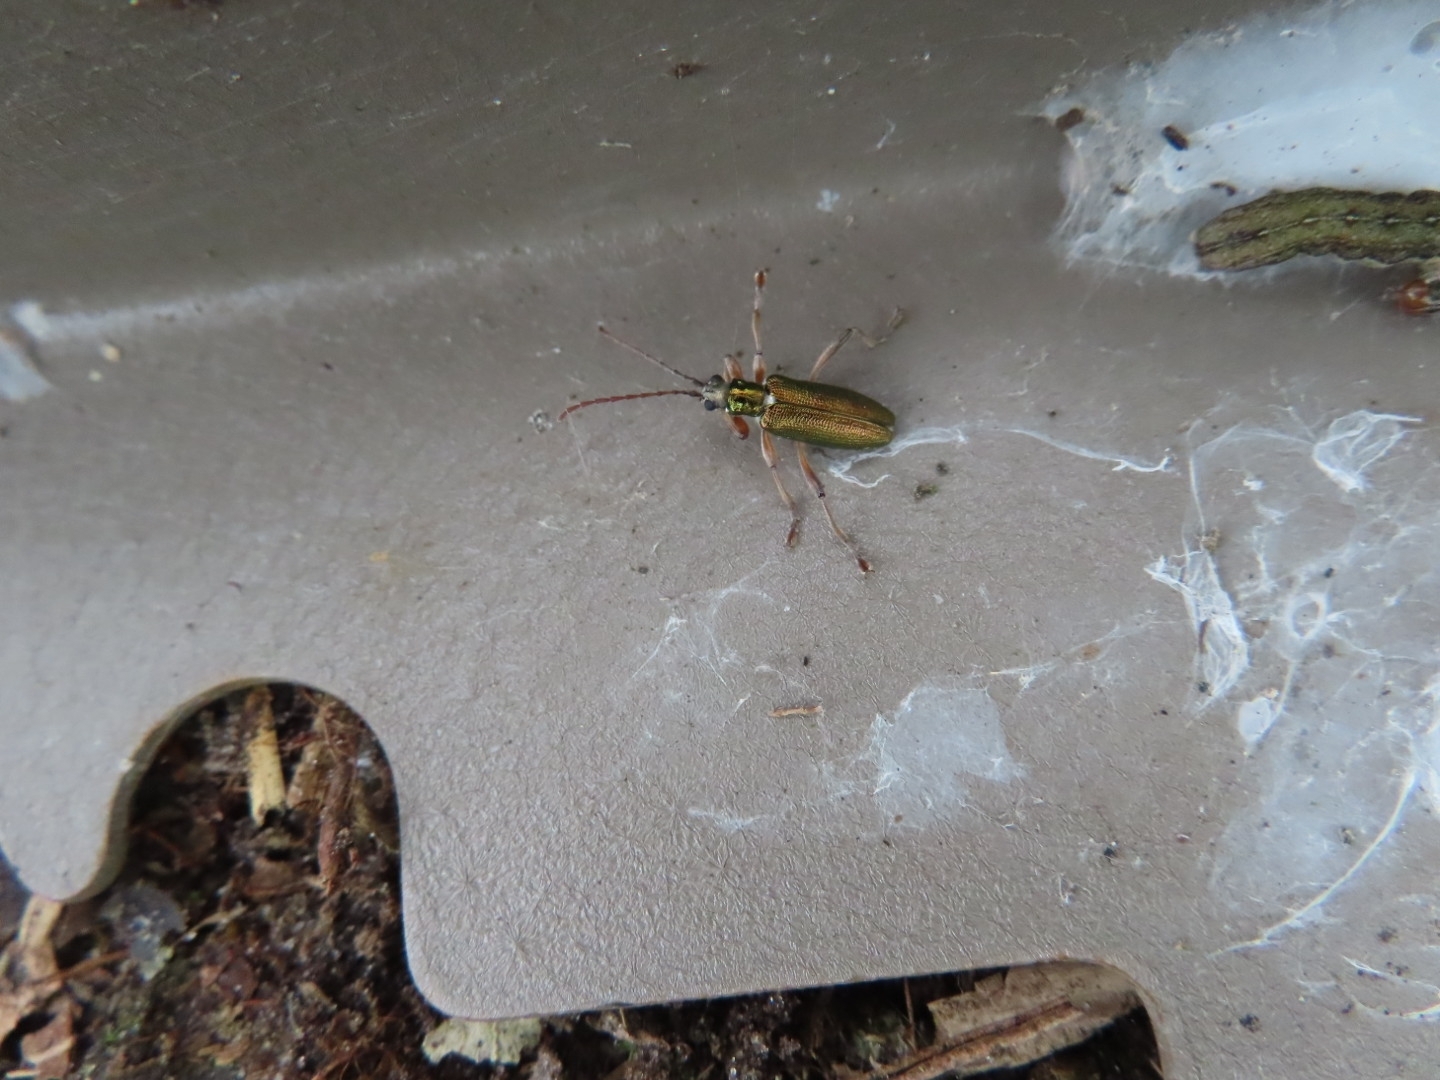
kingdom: Animalia
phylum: Arthropoda
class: Insecta
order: Coleoptera
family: Chrysomelidae
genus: Donacia
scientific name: Donacia clavipes
